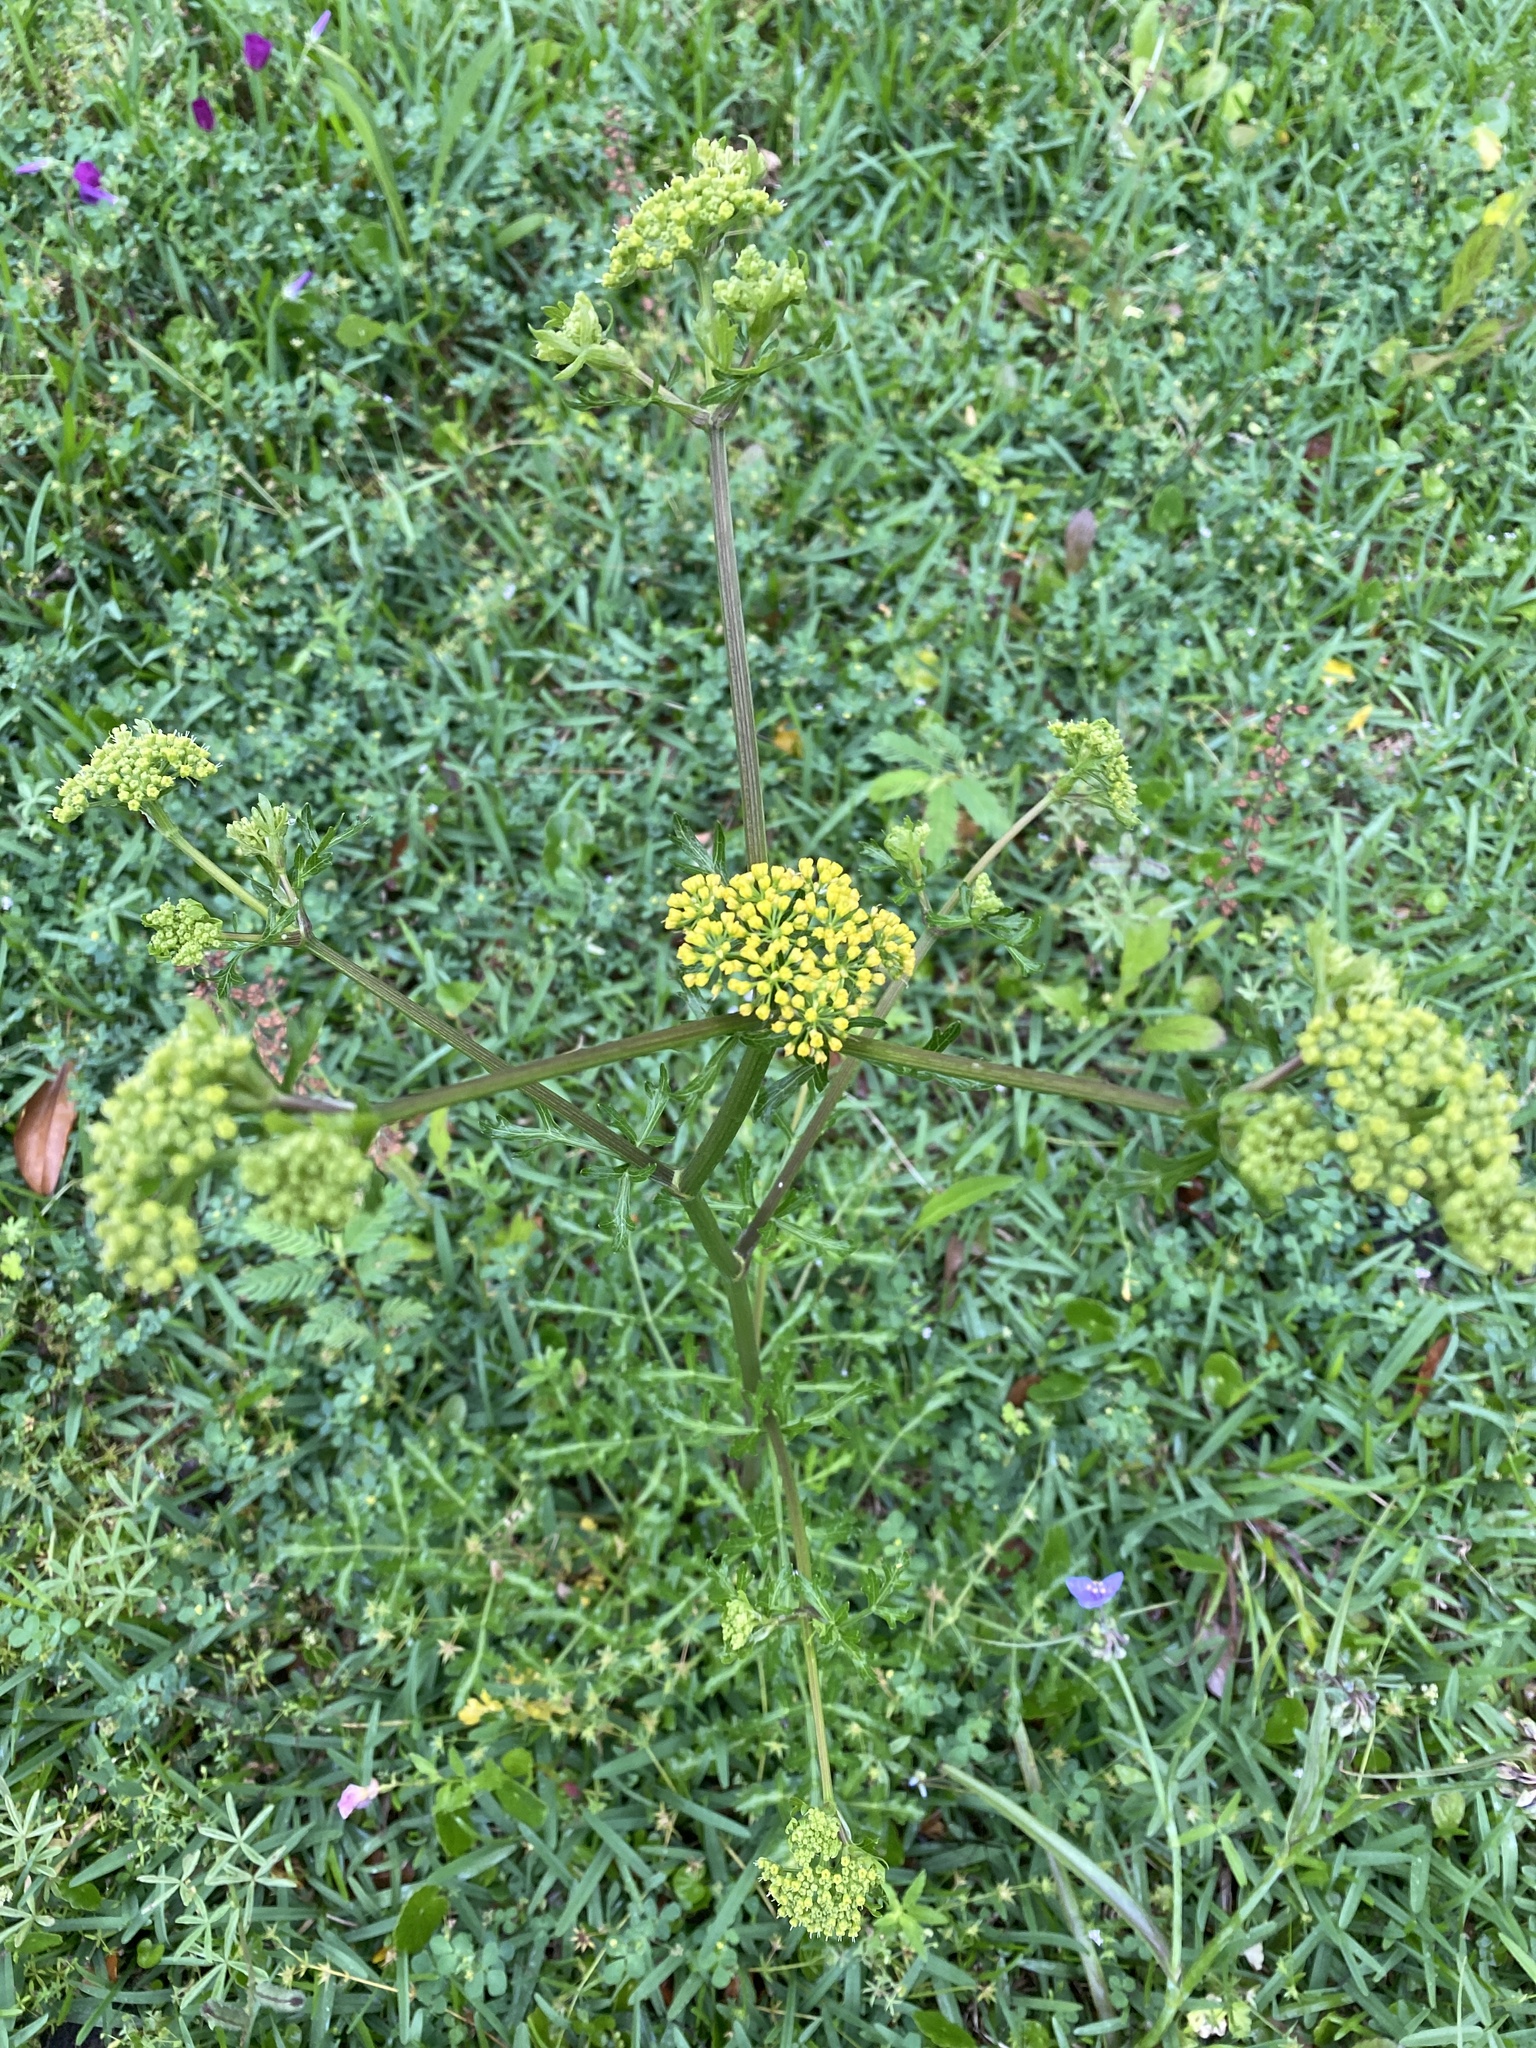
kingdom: Plantae
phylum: Tracheophyta
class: Magnoliopsida
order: Apiales
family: Apiaceae
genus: Polytaenia
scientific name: Polytaenia texana
